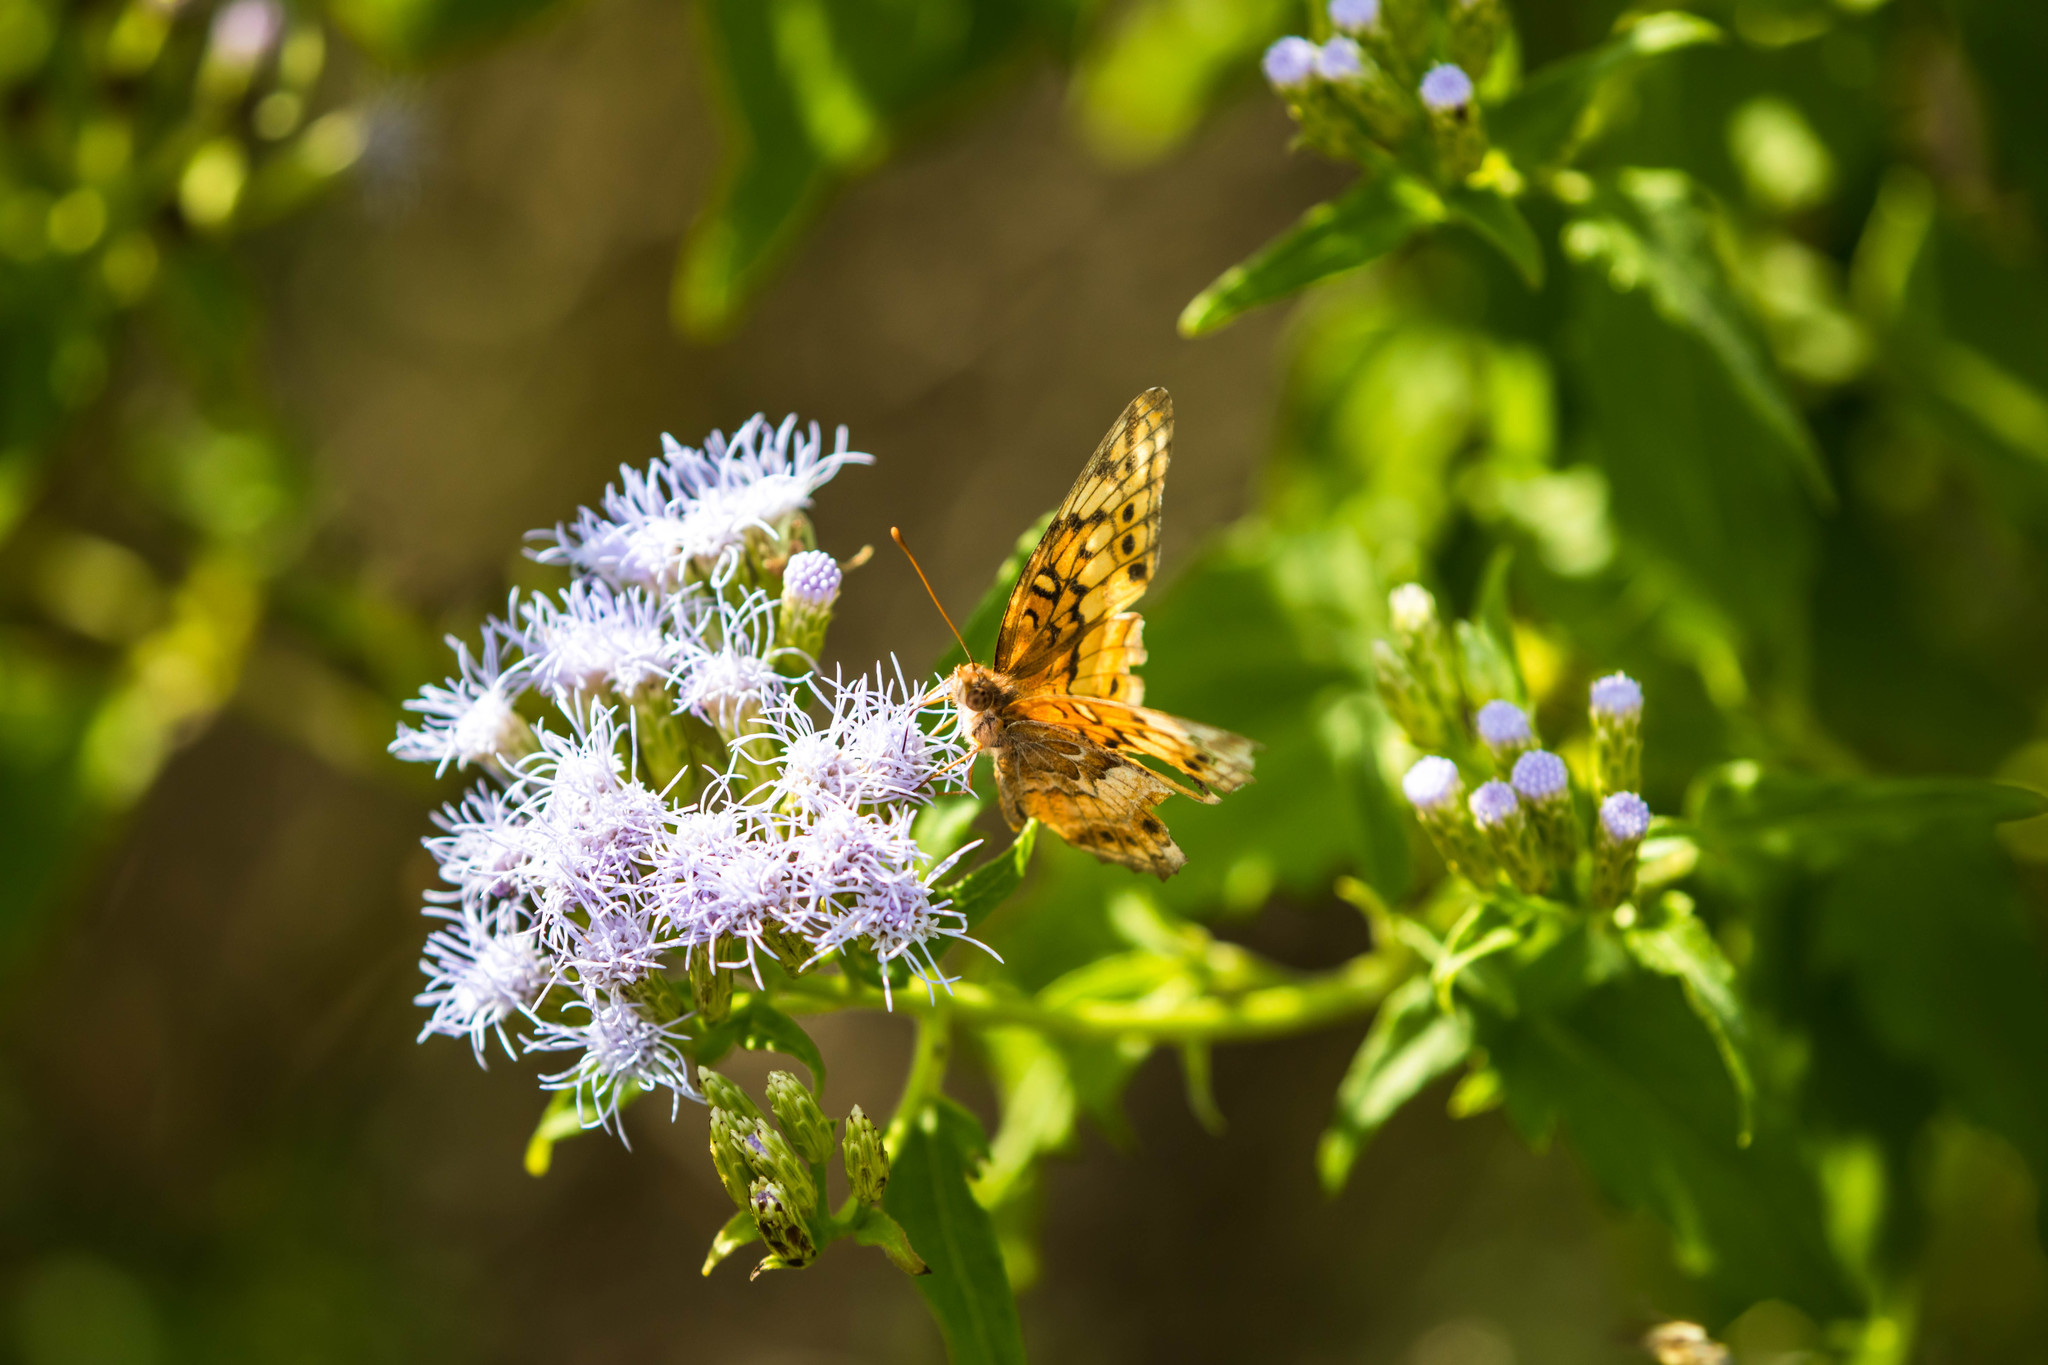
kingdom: Animalia
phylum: Arthropoda
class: Insecta
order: Lepidoptera
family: Nymphalidae
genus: Euptoieta
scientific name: Euptoieta claudia
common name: Variegated fritillary
